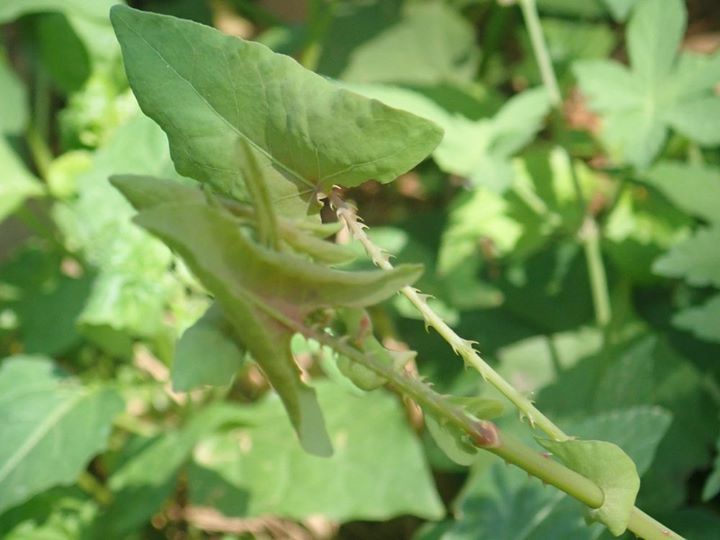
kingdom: Plantae
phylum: Tracheophyta
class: Magnoliopsida
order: Caryophyllales
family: Polygonaceae
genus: Persicaria
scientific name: Persicaria perfoliata
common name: Asiatic tearthumb
